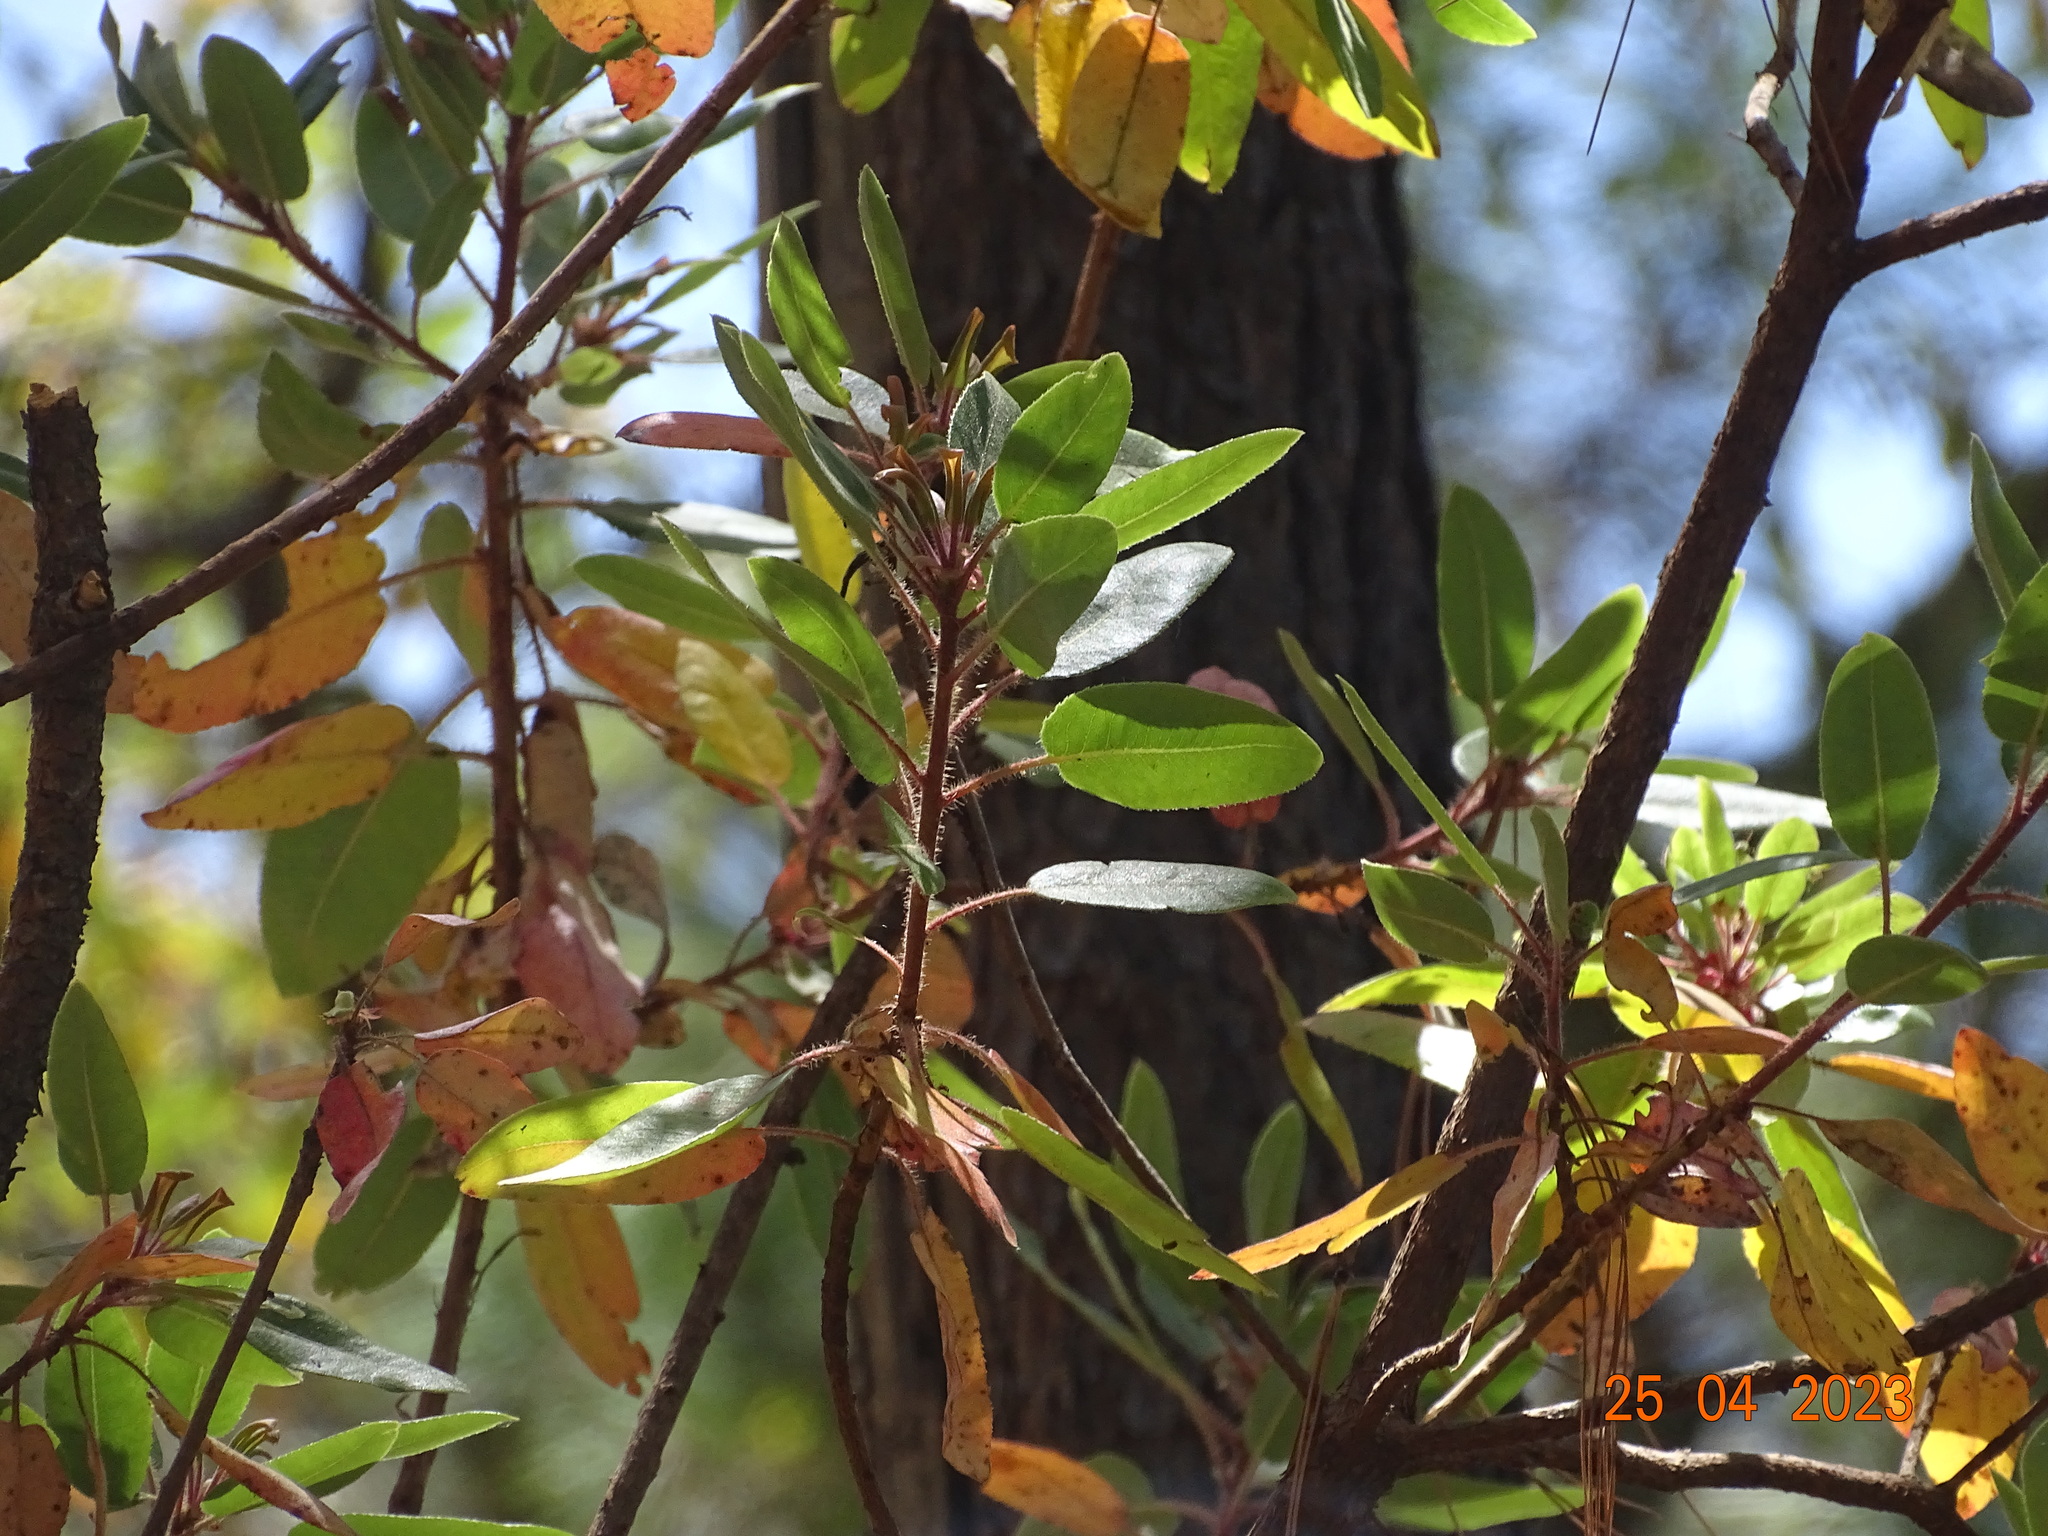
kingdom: Plantae
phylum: Tracheophyta
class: Magnoliopsida
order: Ericales
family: Ericaceae
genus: Arbutus
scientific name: Arbutus tessellata
